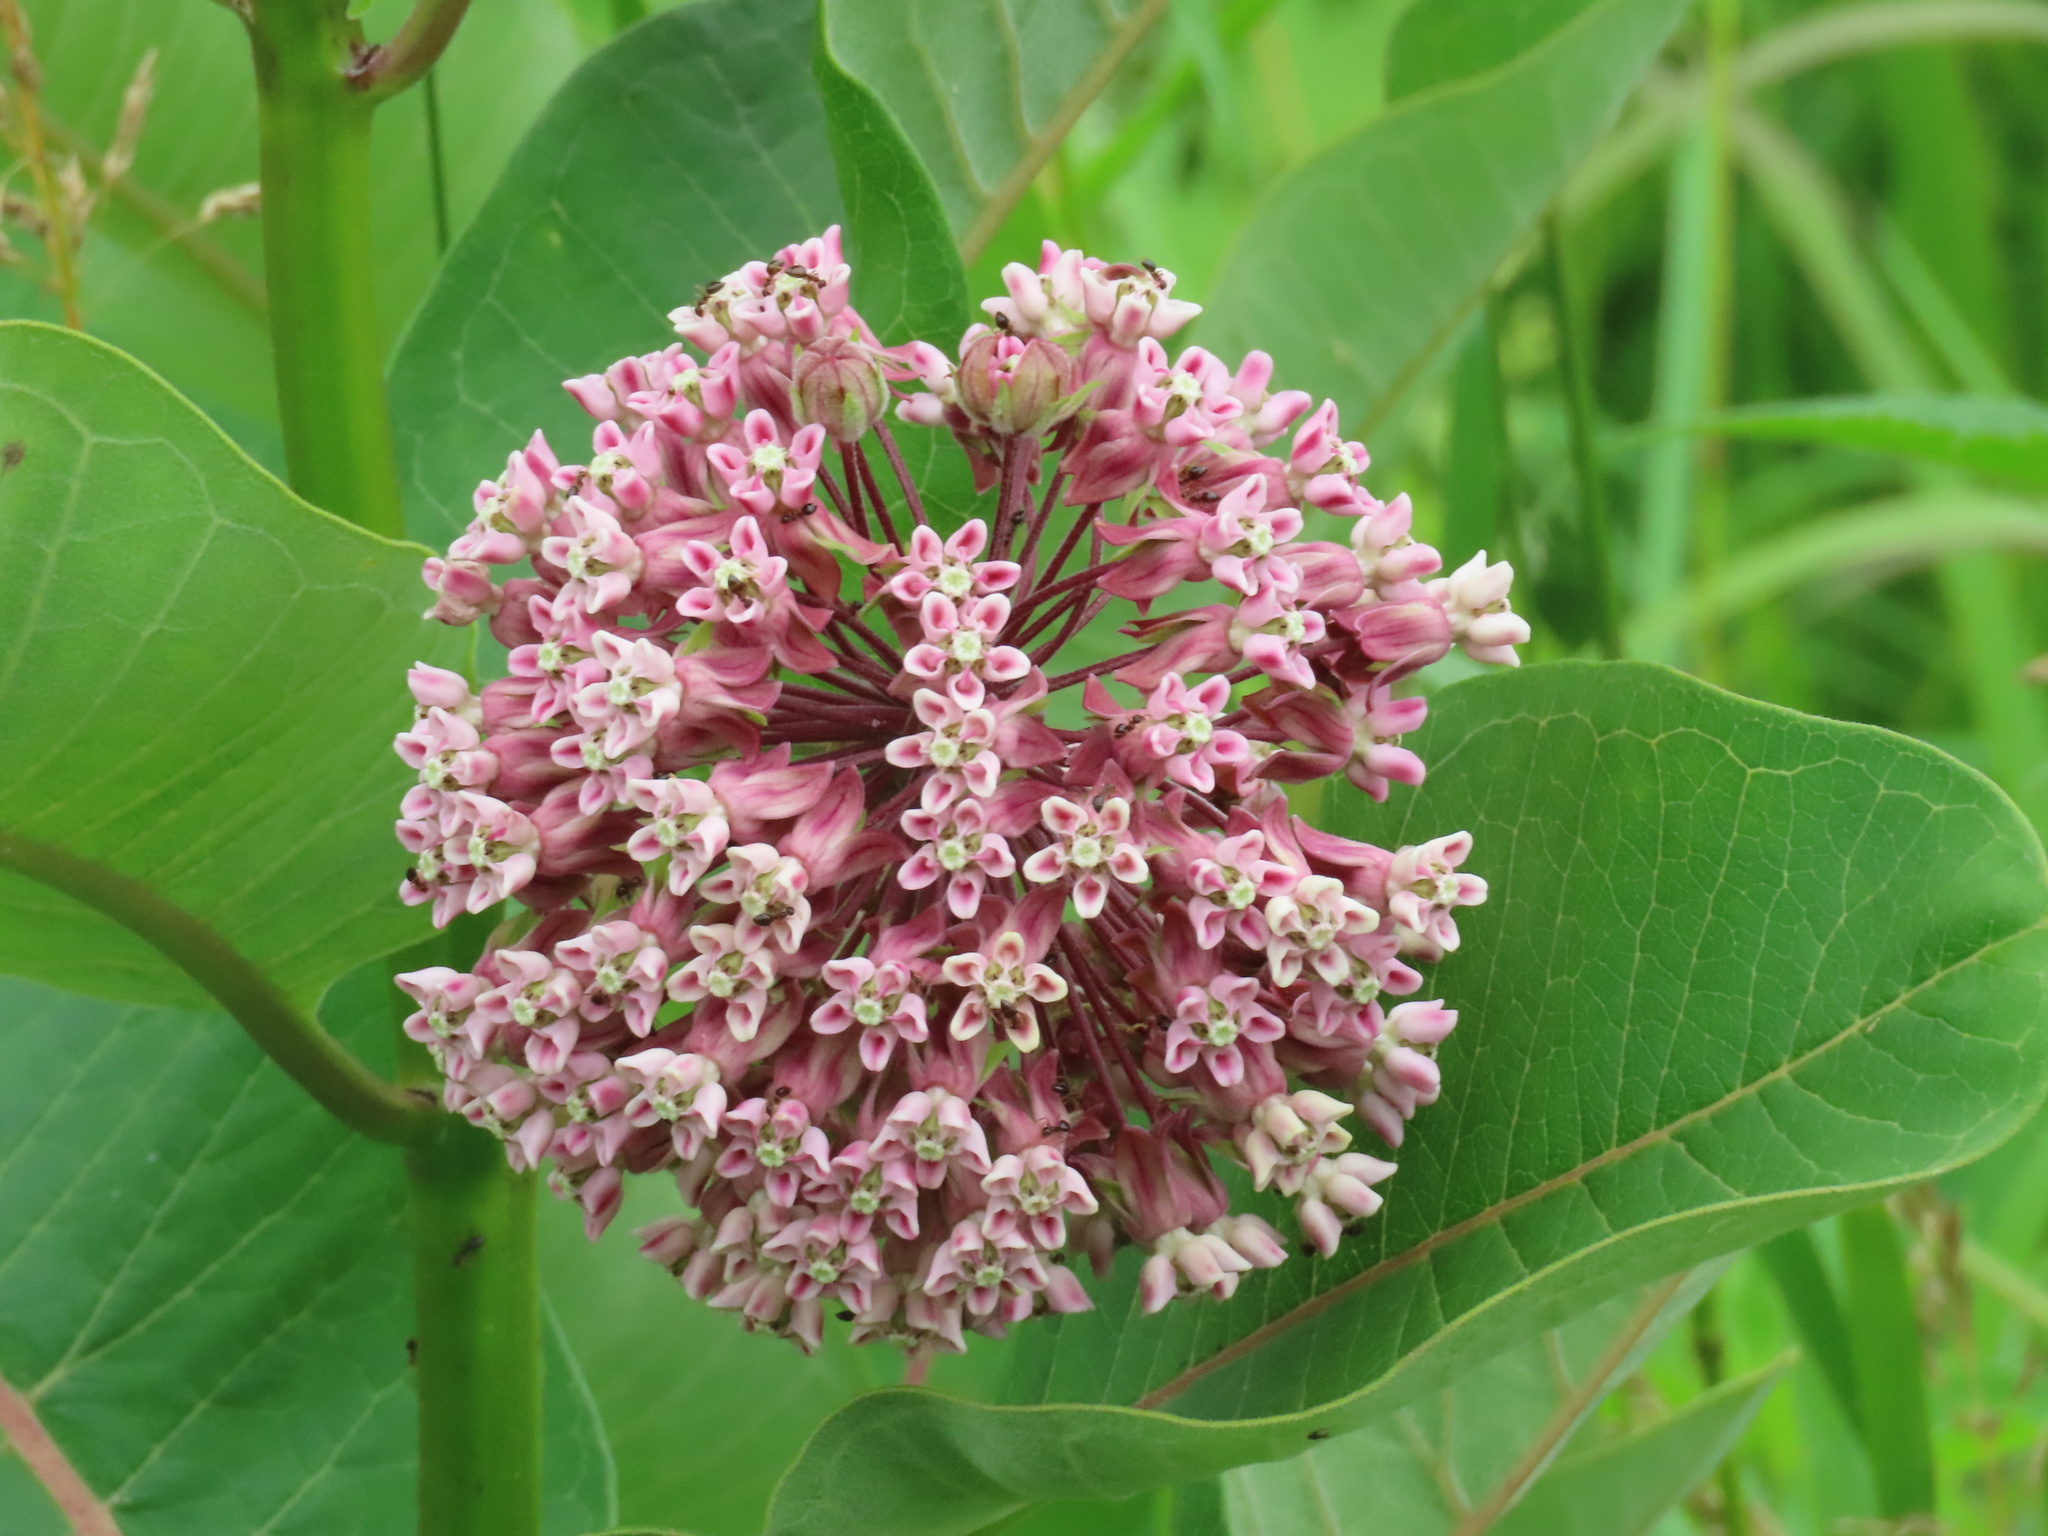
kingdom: Plantae
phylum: Tracheophyta
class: Magnoliopsida
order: Gentianales
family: Apocynaceae
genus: Asclepias
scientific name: Asclepias syriaca
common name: Common milkweed
